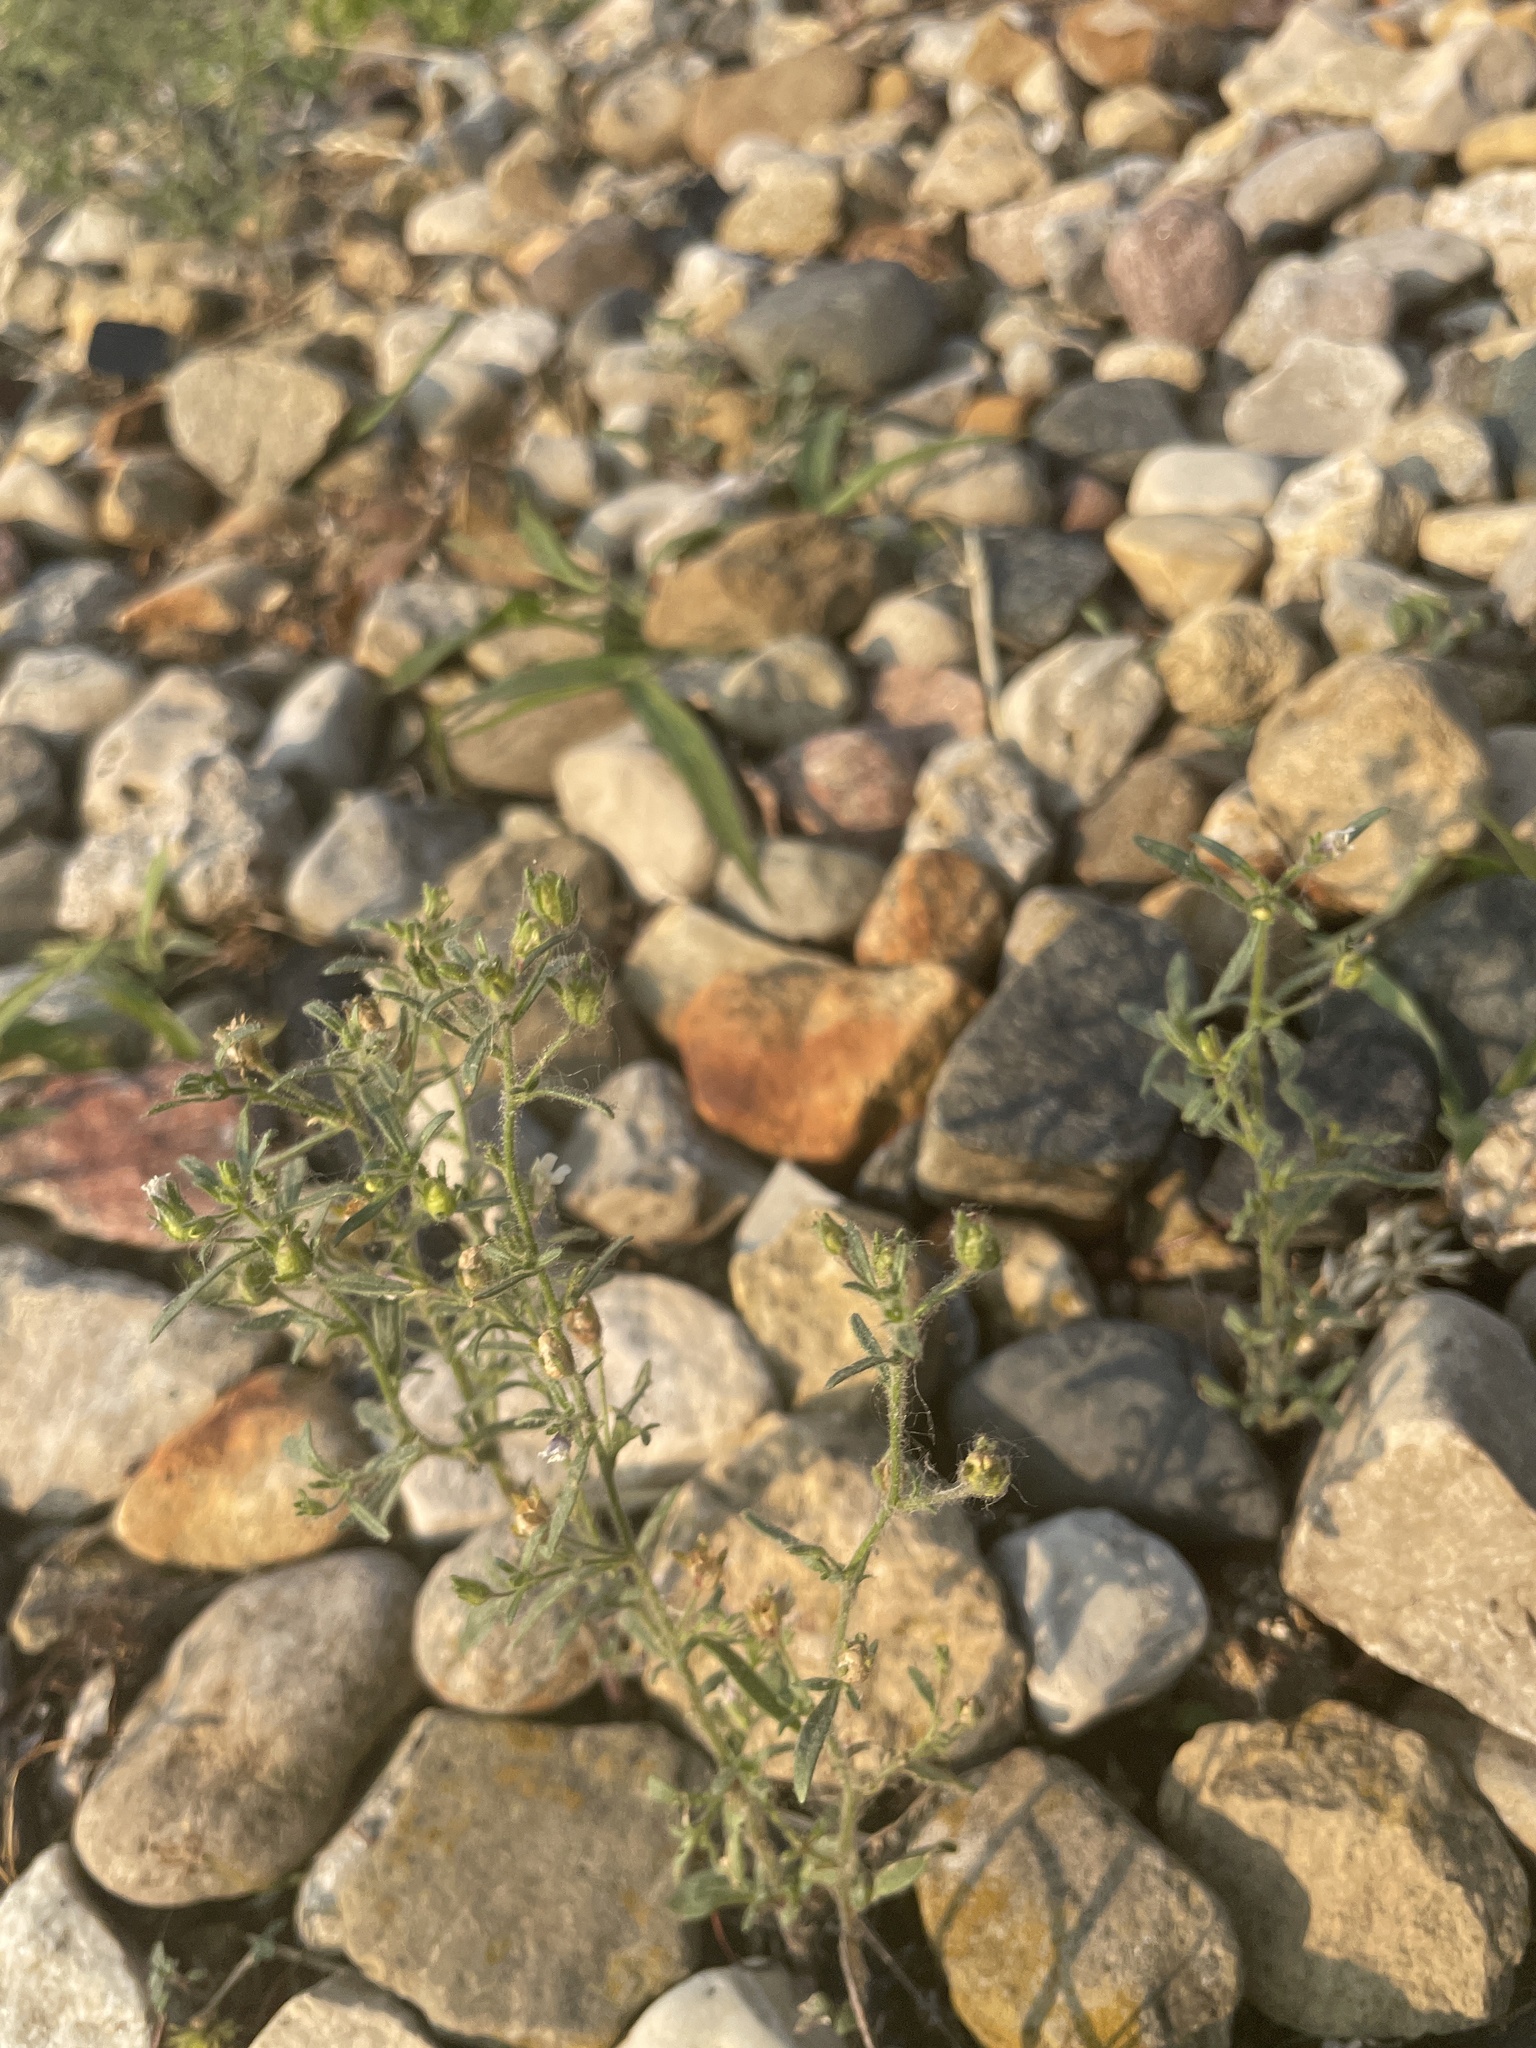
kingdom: Plantae
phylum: Tracheophyta
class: Magnoliopsida
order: Lamiales
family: Plantaginaceae
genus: Chaenorhinum
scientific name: Chaenorhinum minus
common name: Dwarf snapdragon
